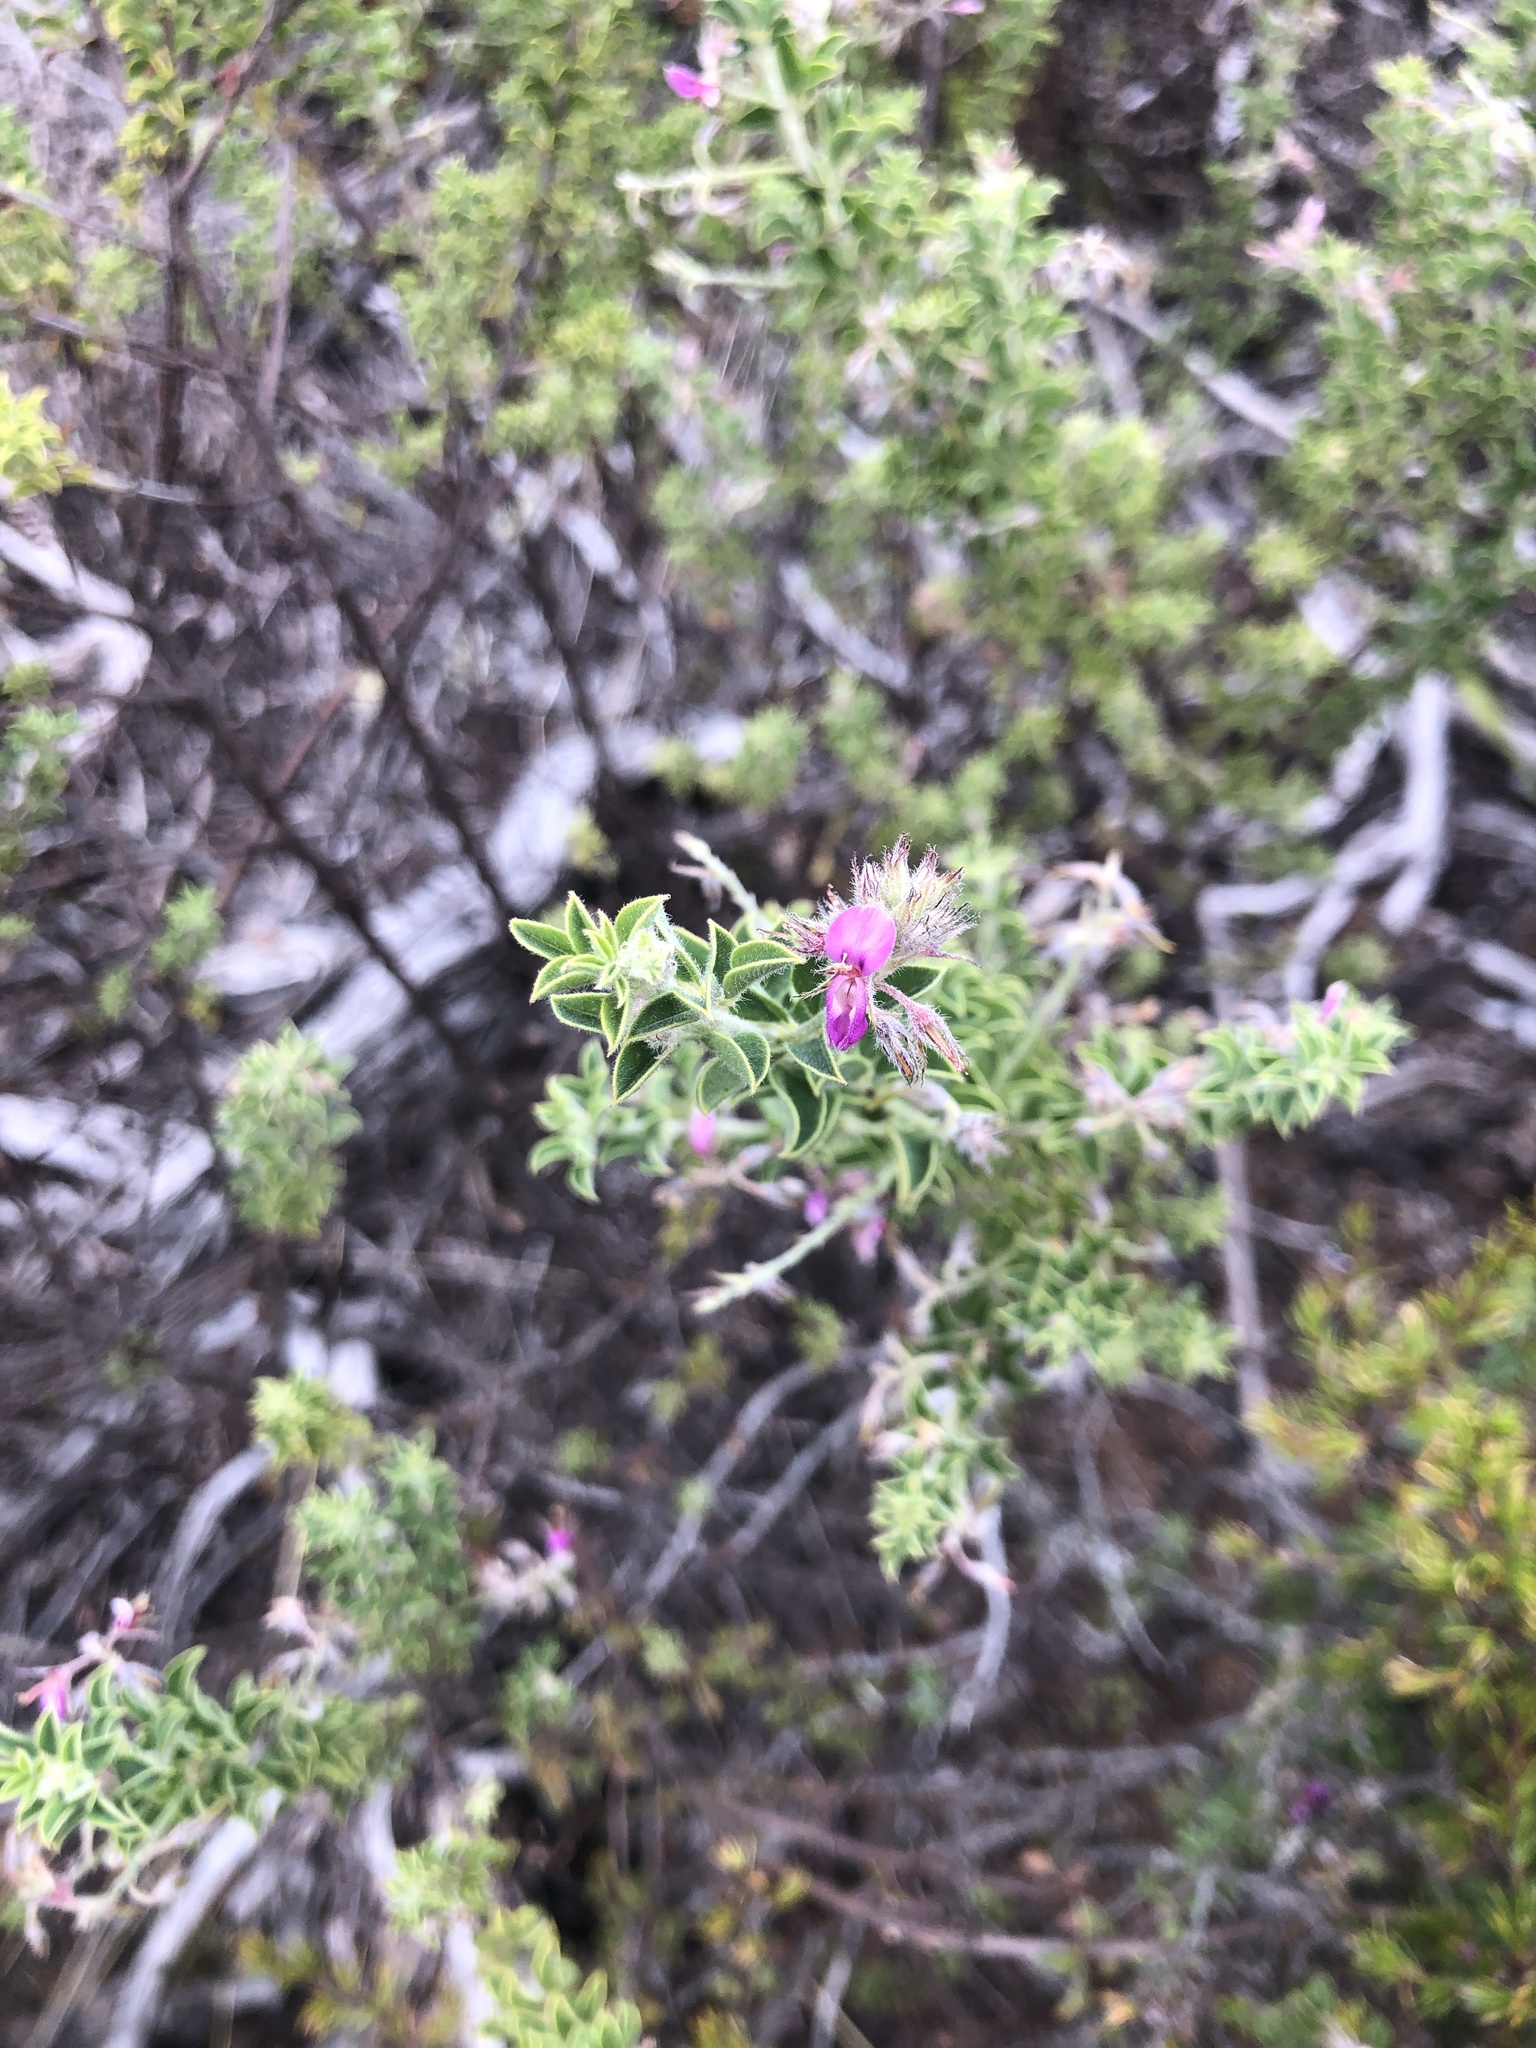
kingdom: Plantae
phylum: Tracheophyta
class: Magnoliopsida
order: Fabales
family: Fabaceae
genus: Indigofera
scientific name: Indigofera candolleana
